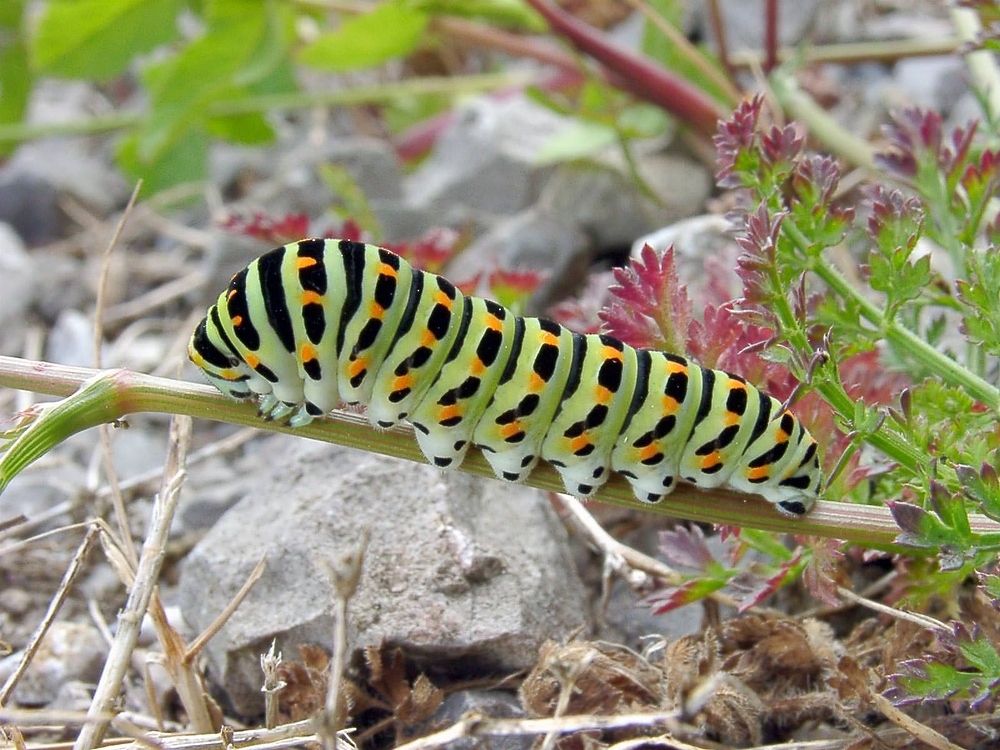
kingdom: Animalia
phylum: Arthropoda
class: Insecta
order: Lepidoptera
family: Papilionidae
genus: Papilio
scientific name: Papilio machaon
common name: Swallowtail
